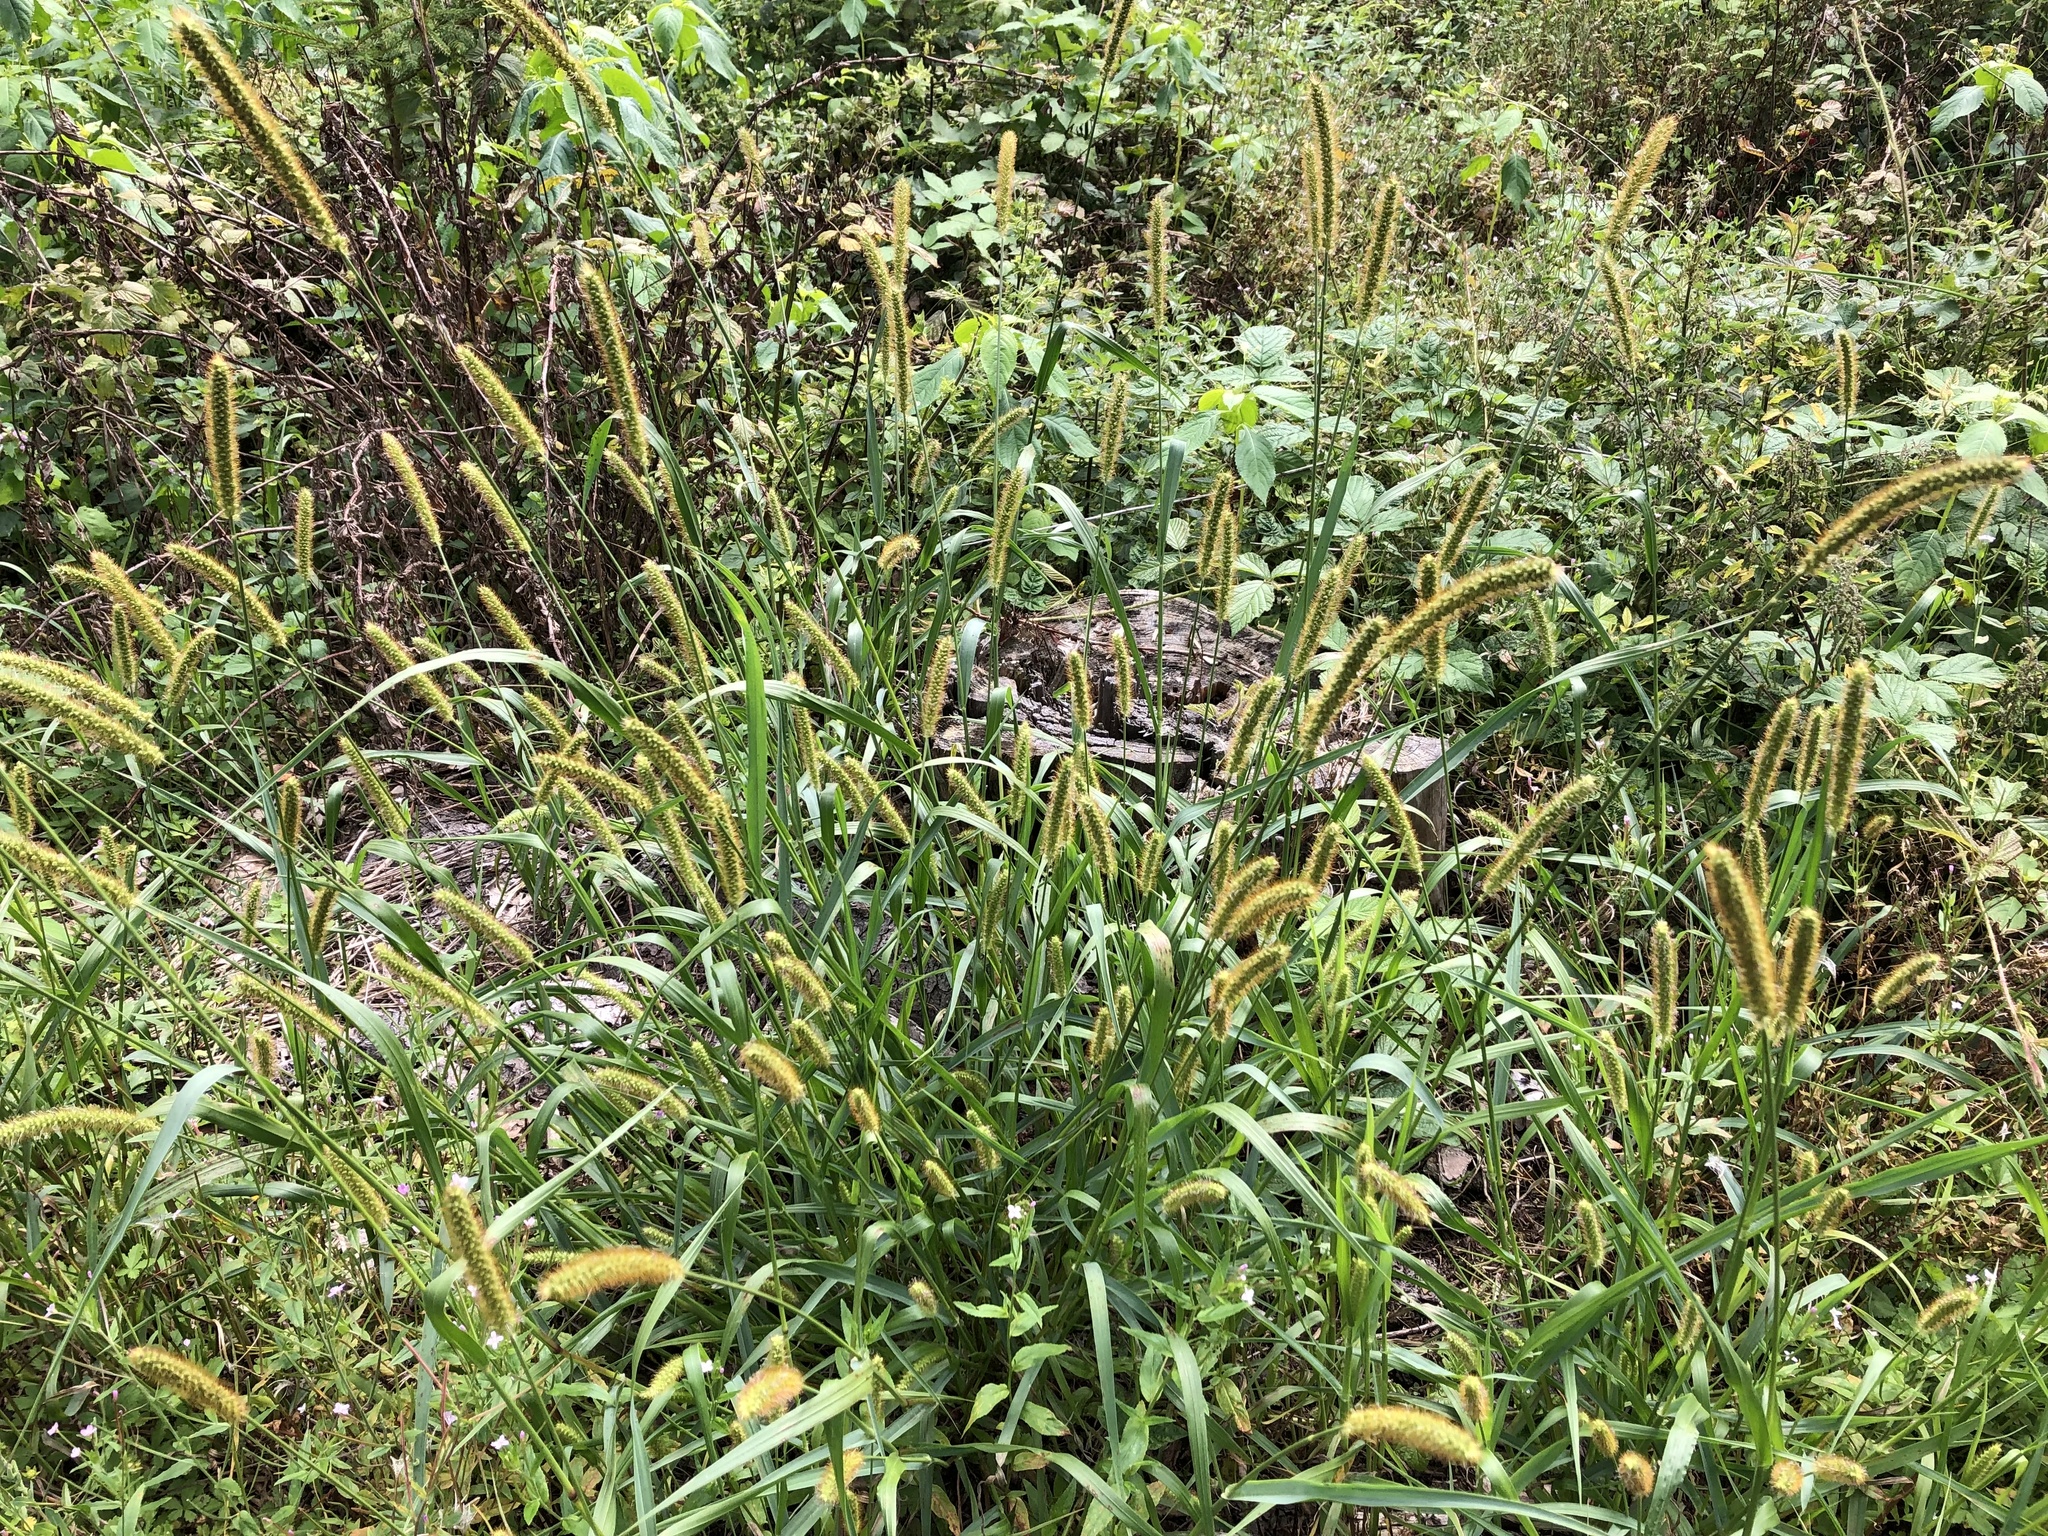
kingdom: Plantae
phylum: Tracheophyta
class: Liliopsida
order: Poales
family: Poaceae
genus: Setaria
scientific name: Setaria pumila
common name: Yellow bristle-grass
